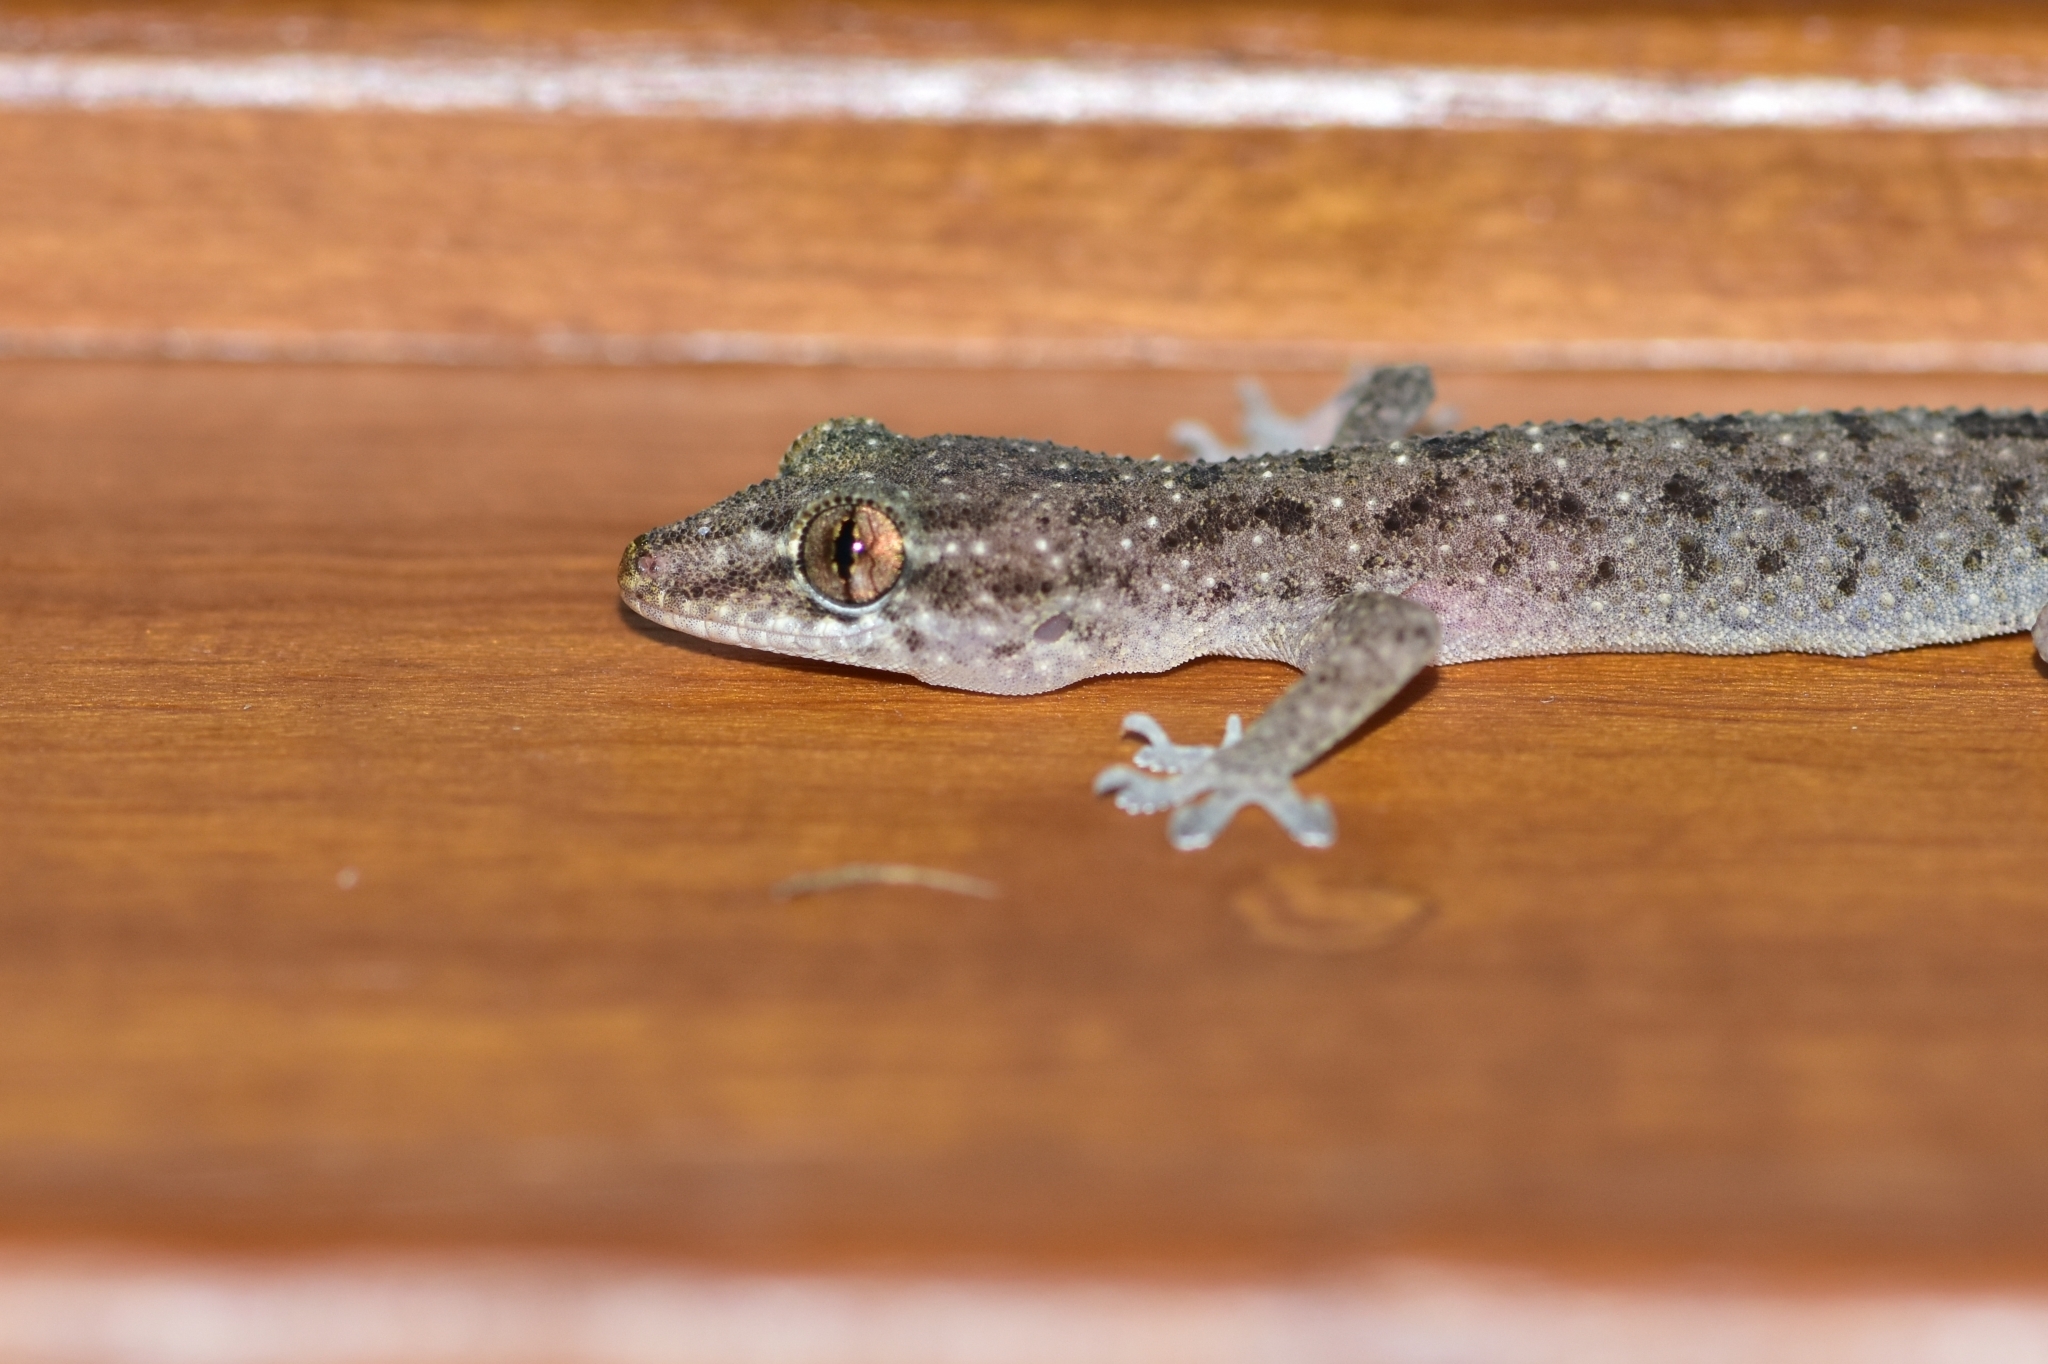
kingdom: Animalia
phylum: Chordata
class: Squamata
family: Gekkonidae
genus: Hemidactylus
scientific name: Hemidactylus parvimaculatus
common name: Spotted house gecko
